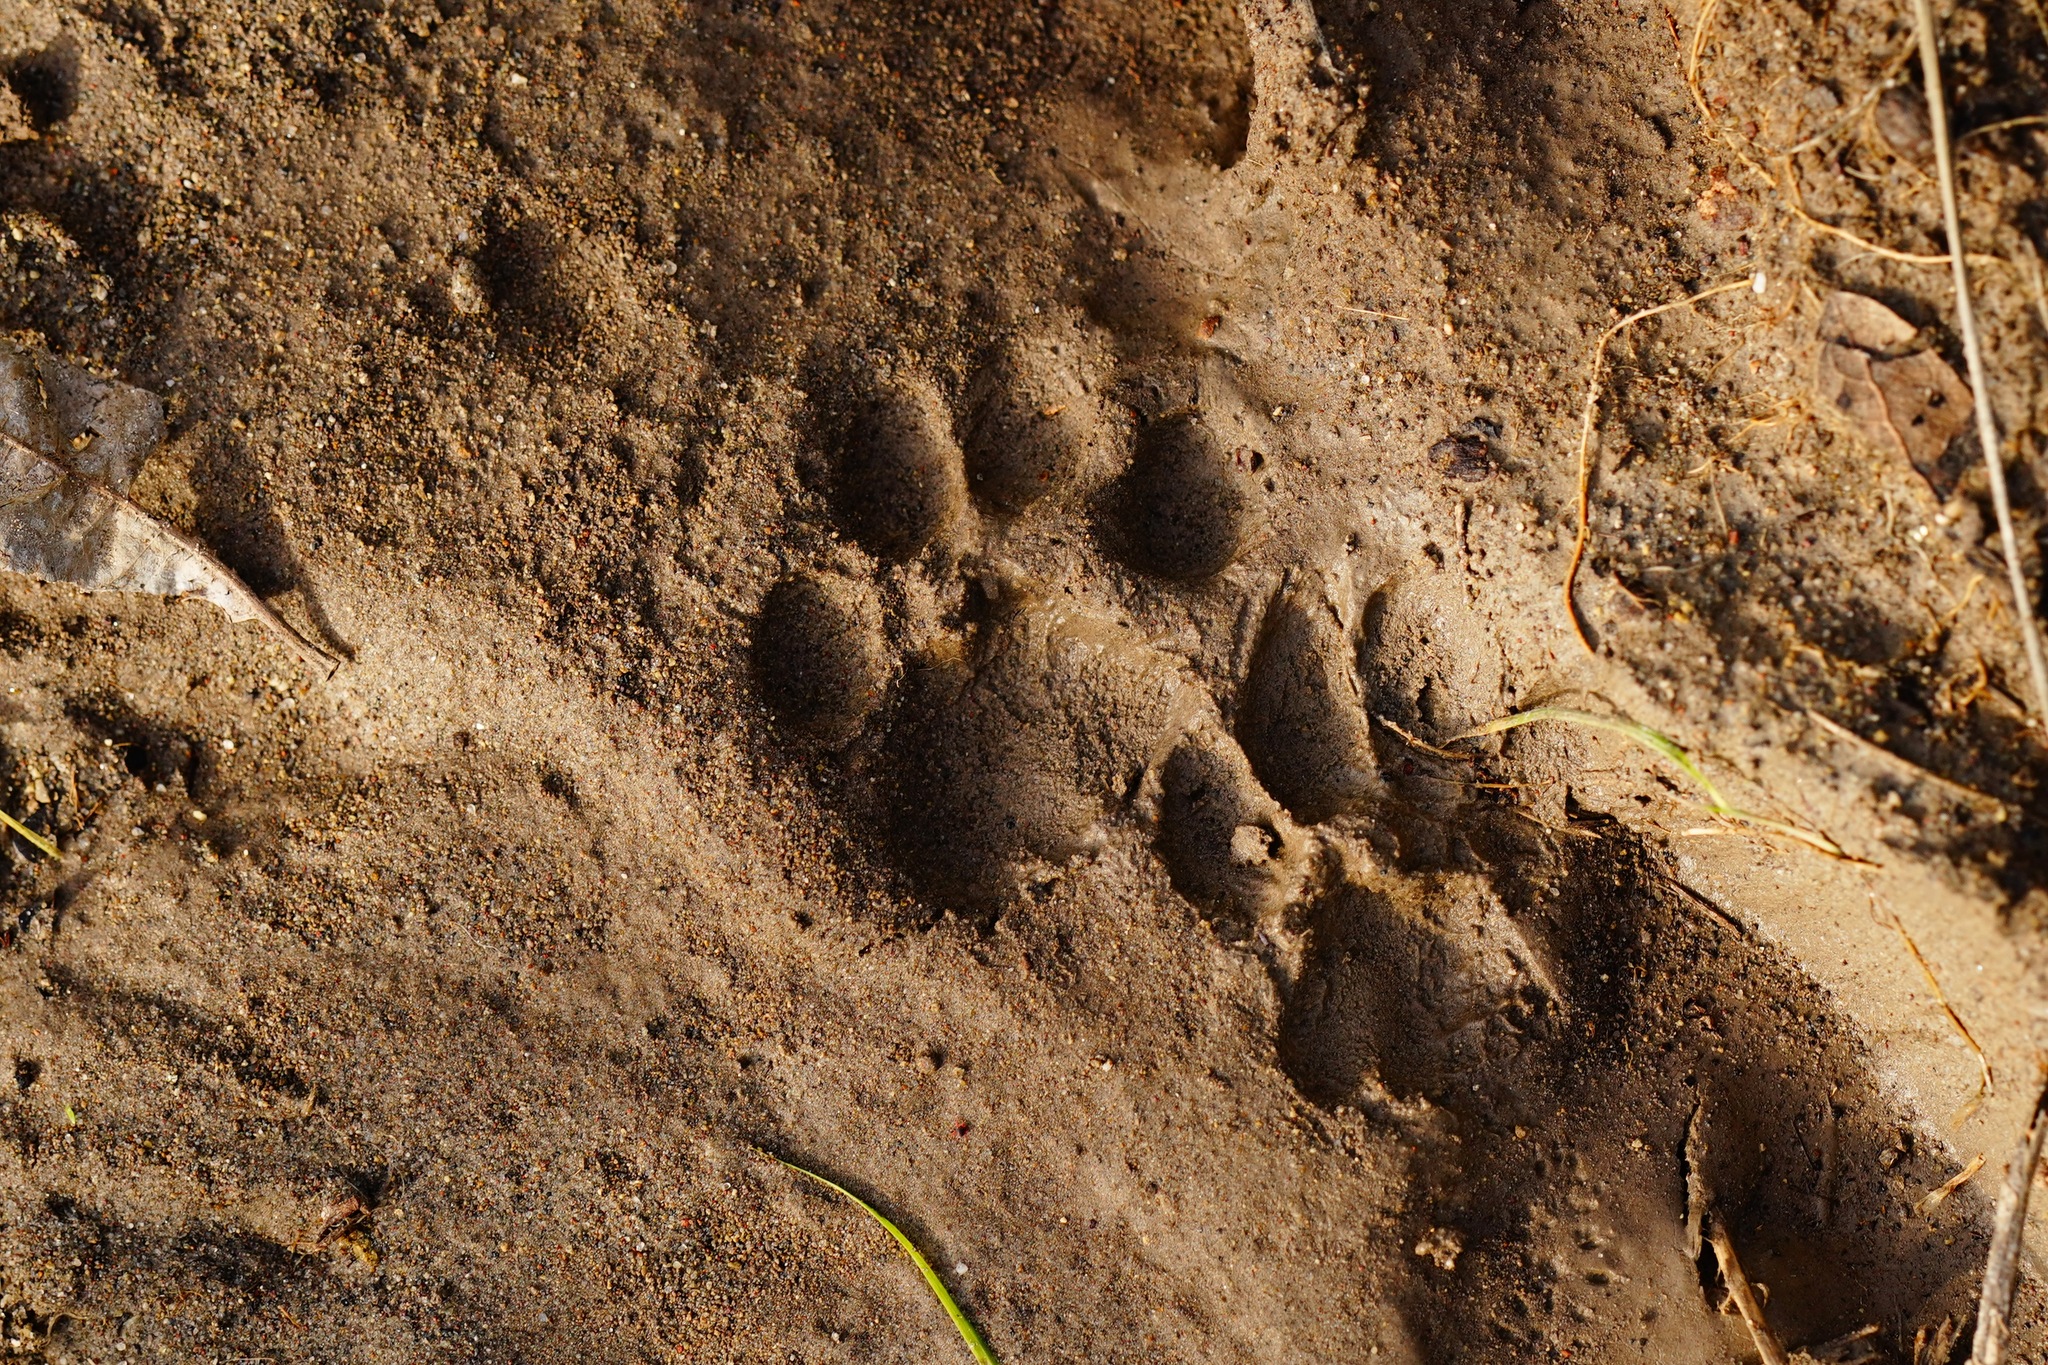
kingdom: Animalia
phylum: Chordata
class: Mammalia
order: Carnivora
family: Felidae
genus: Lynx
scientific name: Lynx rufus
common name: Bobcat
